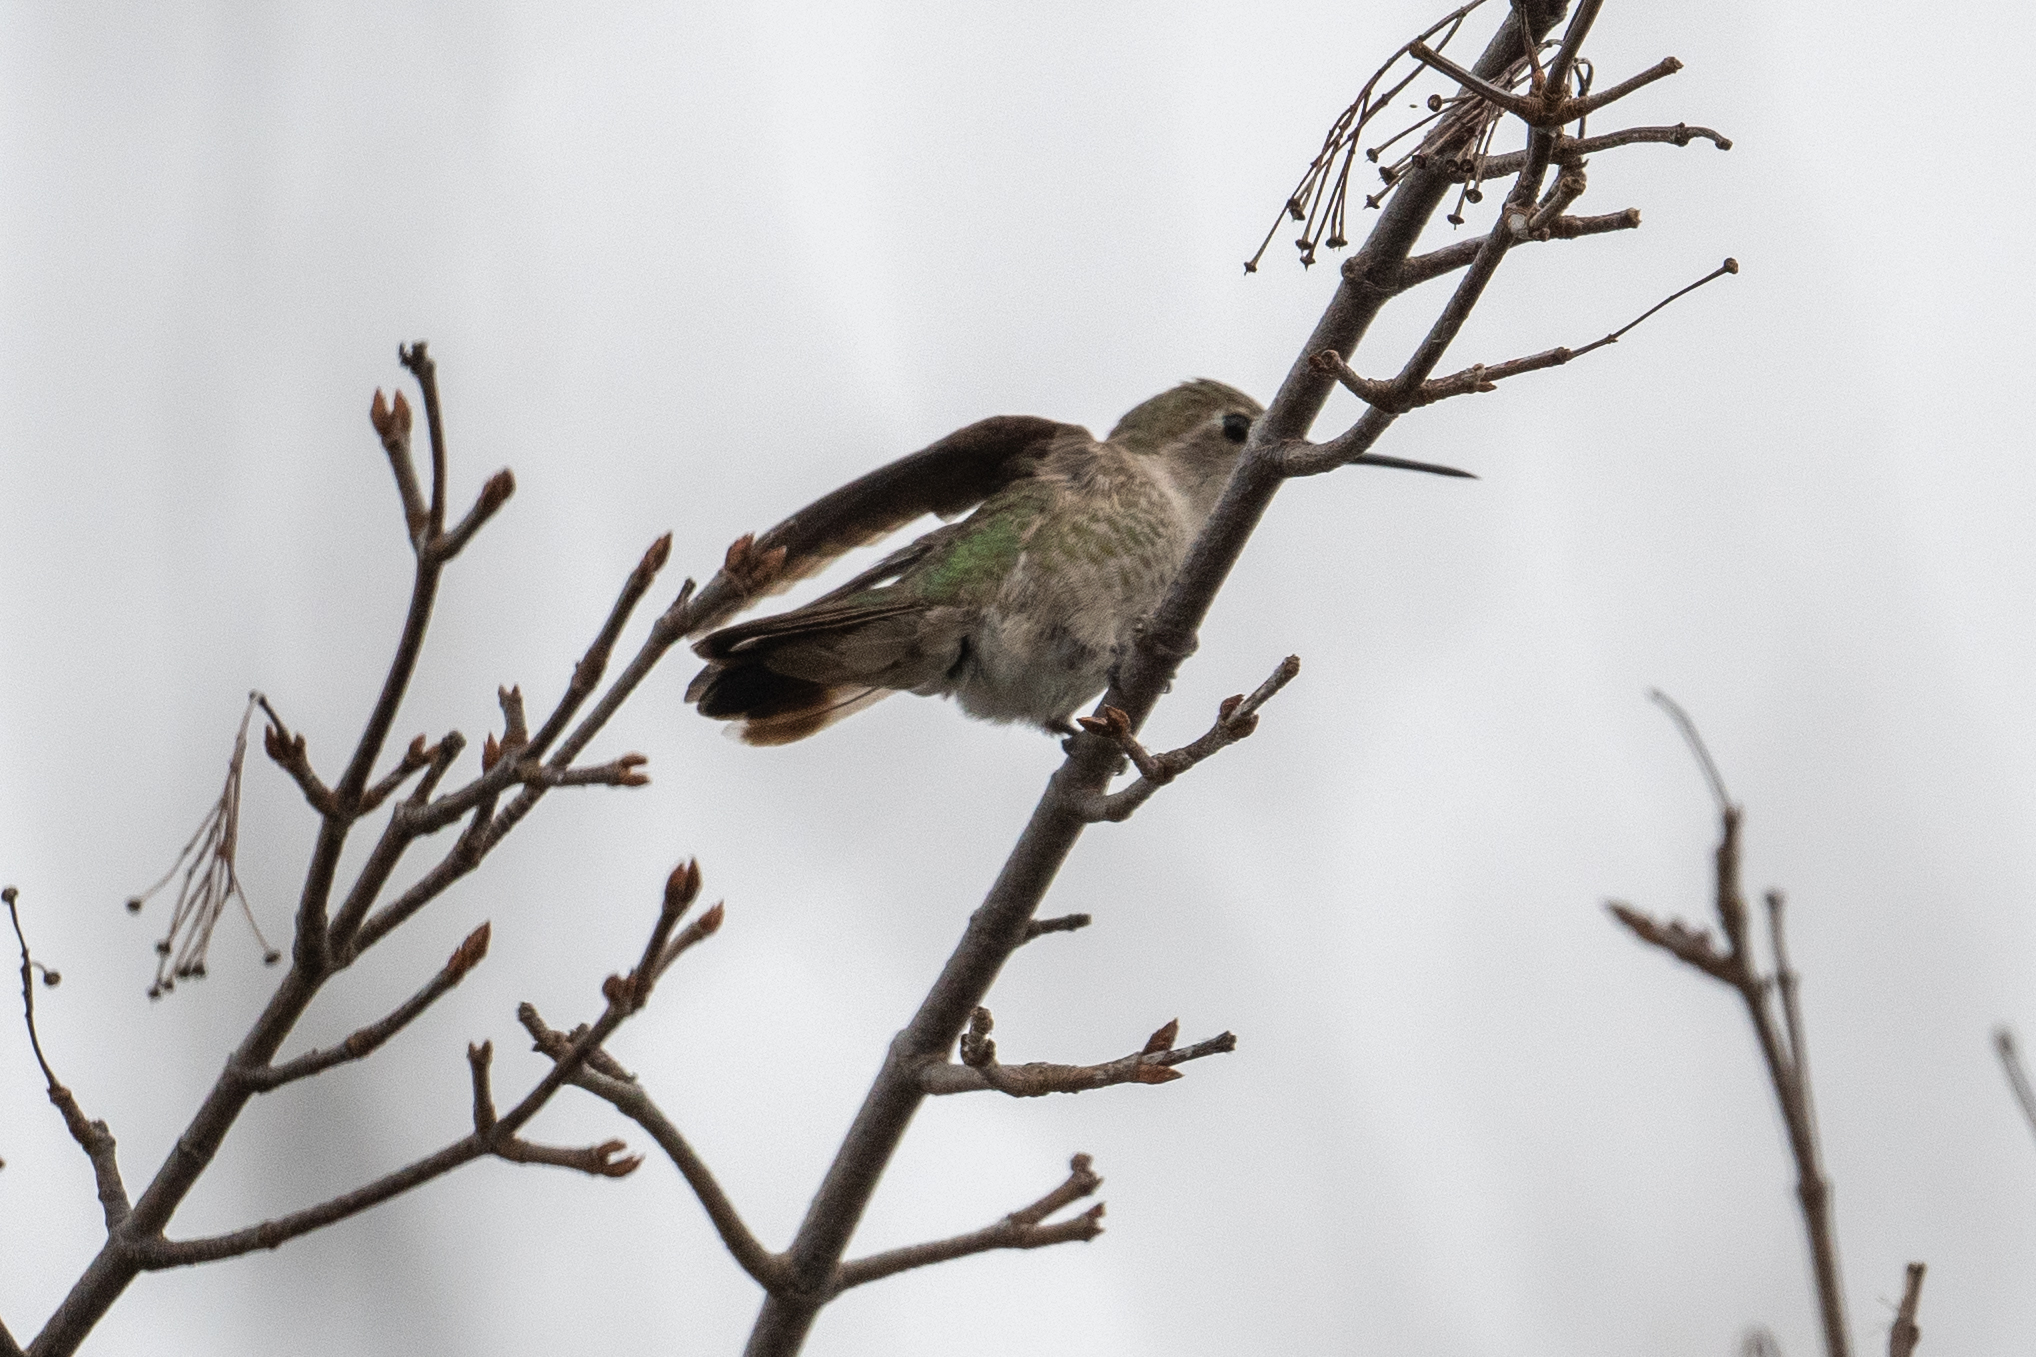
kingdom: Animalia
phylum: Chordata
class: Aves
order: Apodiformes
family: Trochilidae
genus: Calypte
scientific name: Calypte anna
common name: Anna's hummingbird
